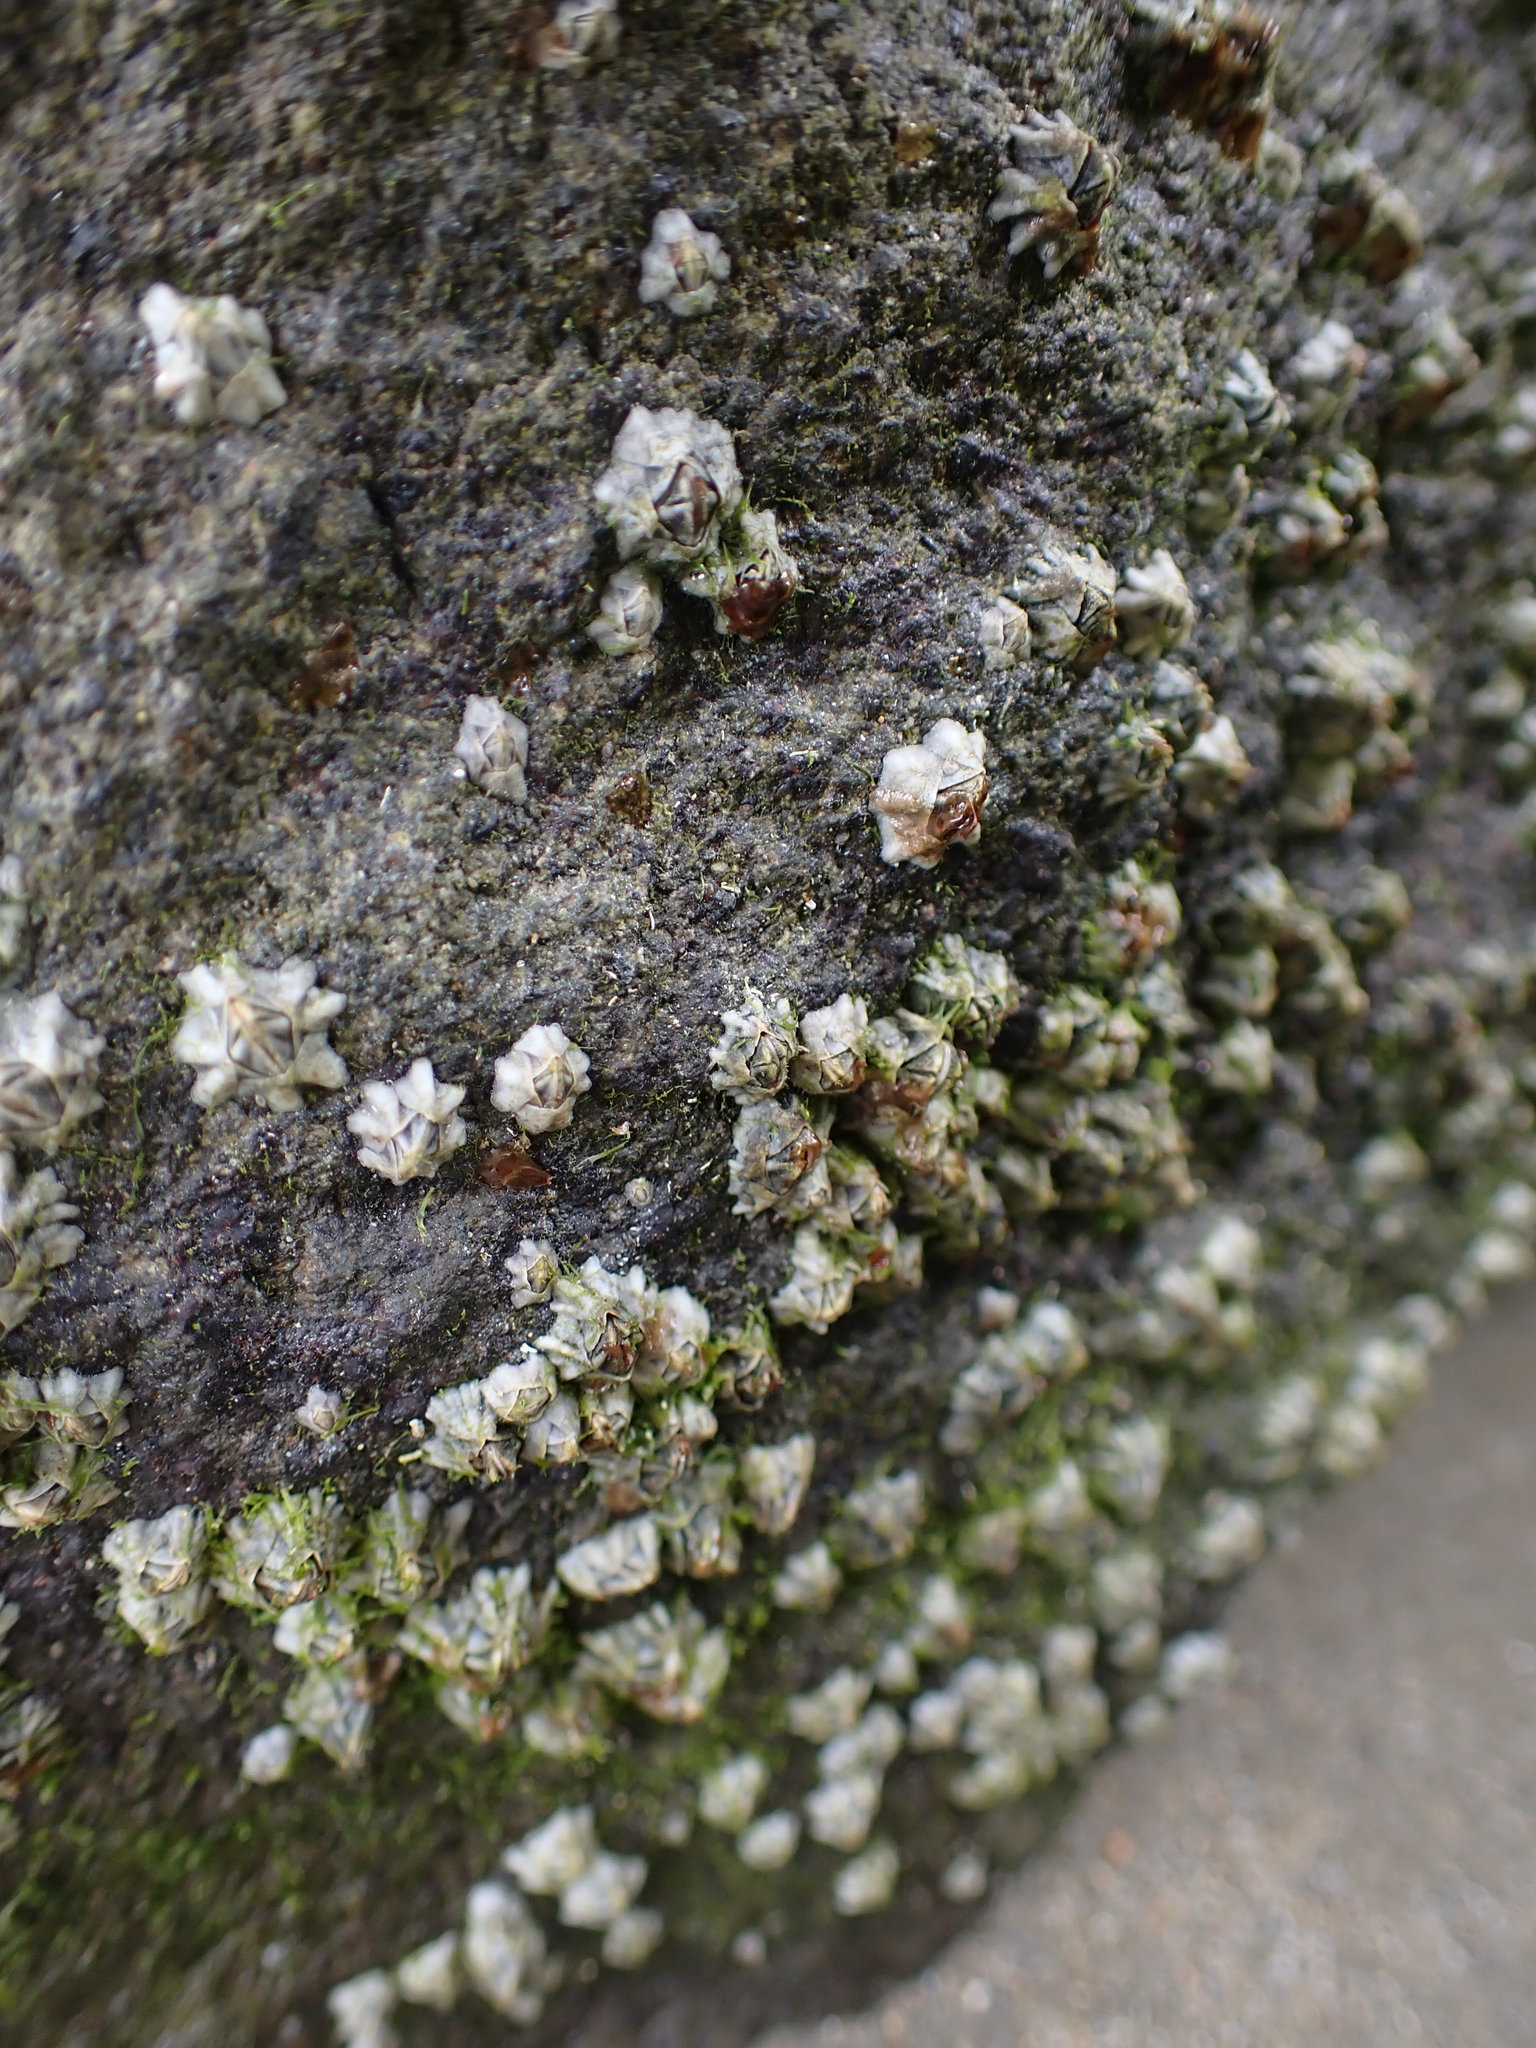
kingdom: Animalia
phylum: Arthropoda
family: Elminiidae
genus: Austrominius
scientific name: Austrominius modestus
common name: Australasian barnacle
